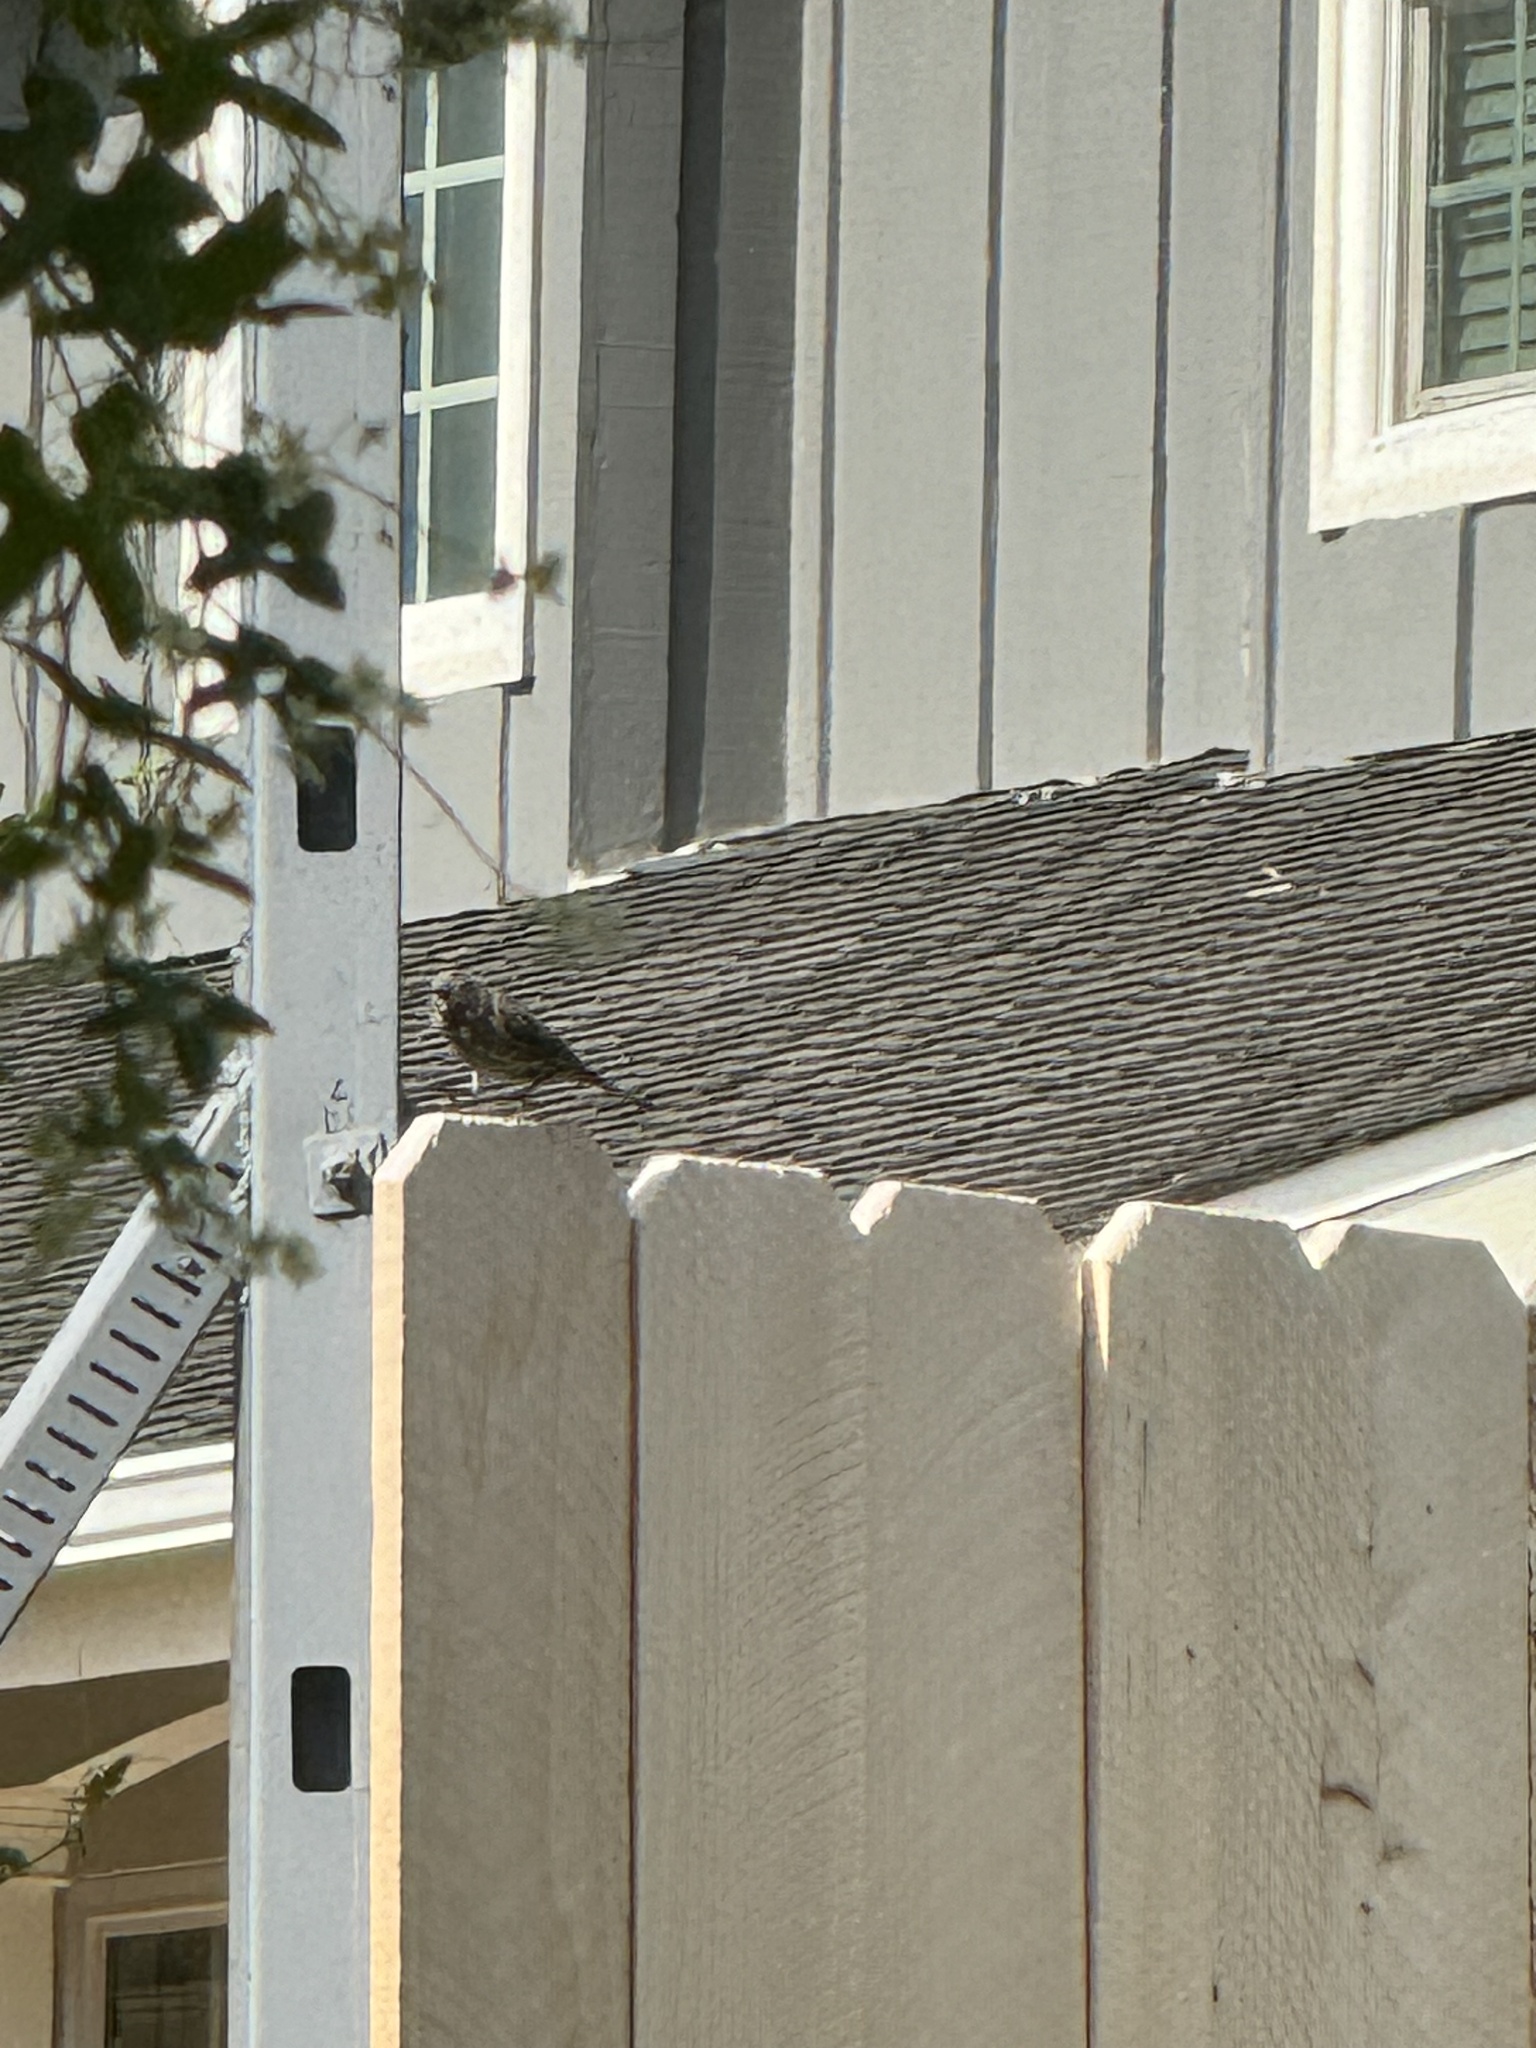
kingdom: Animalia
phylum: Chordata
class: Aves
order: Passeriformes
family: Parulidae
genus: Setophaga
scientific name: Setophaga coronata
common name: Myrtle warbler
